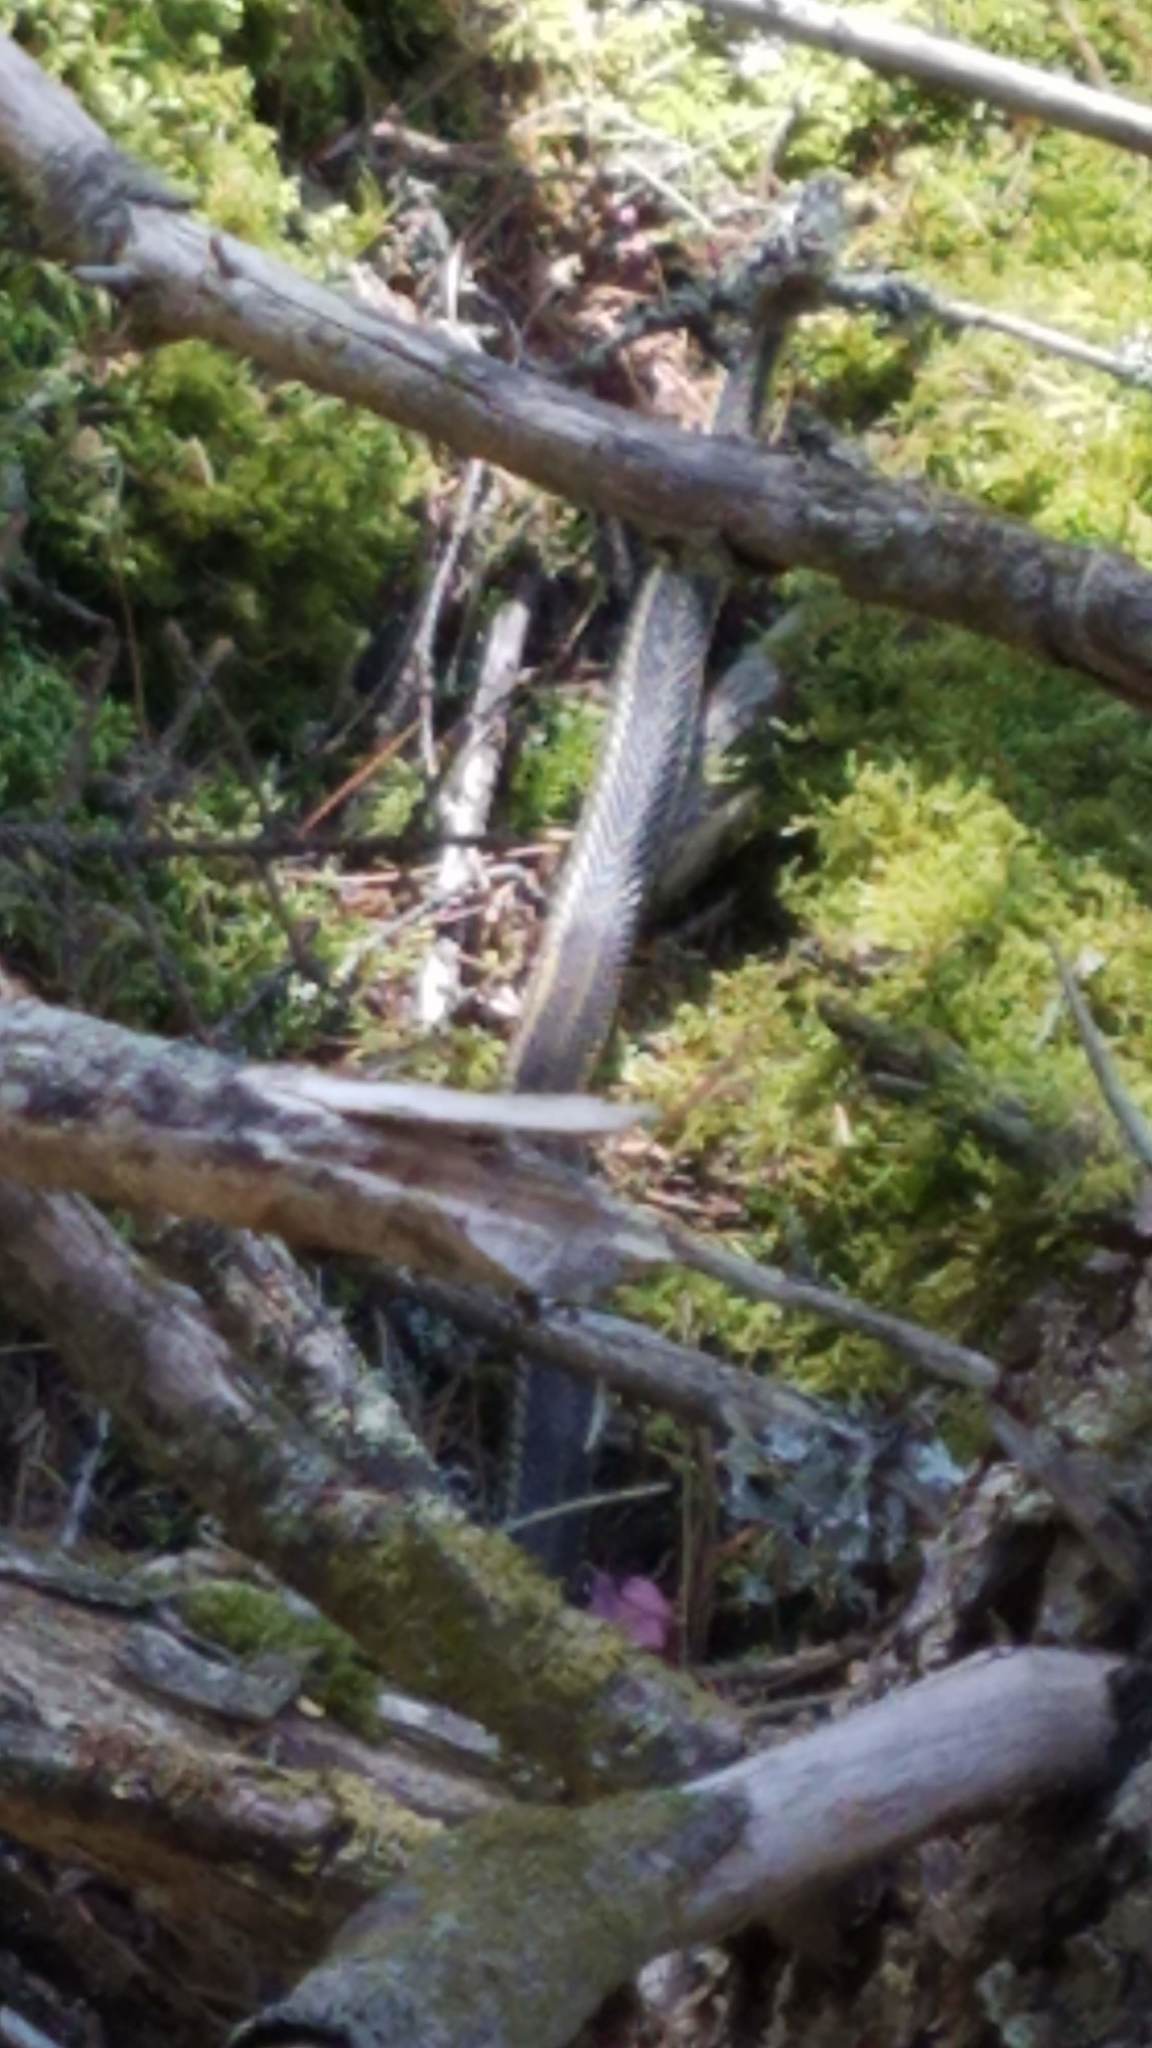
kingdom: Animalia
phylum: Chordata
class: Squamata
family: Colubridae
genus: Thamnophis
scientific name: Thamnophis sirtalis
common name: Common garter snake
